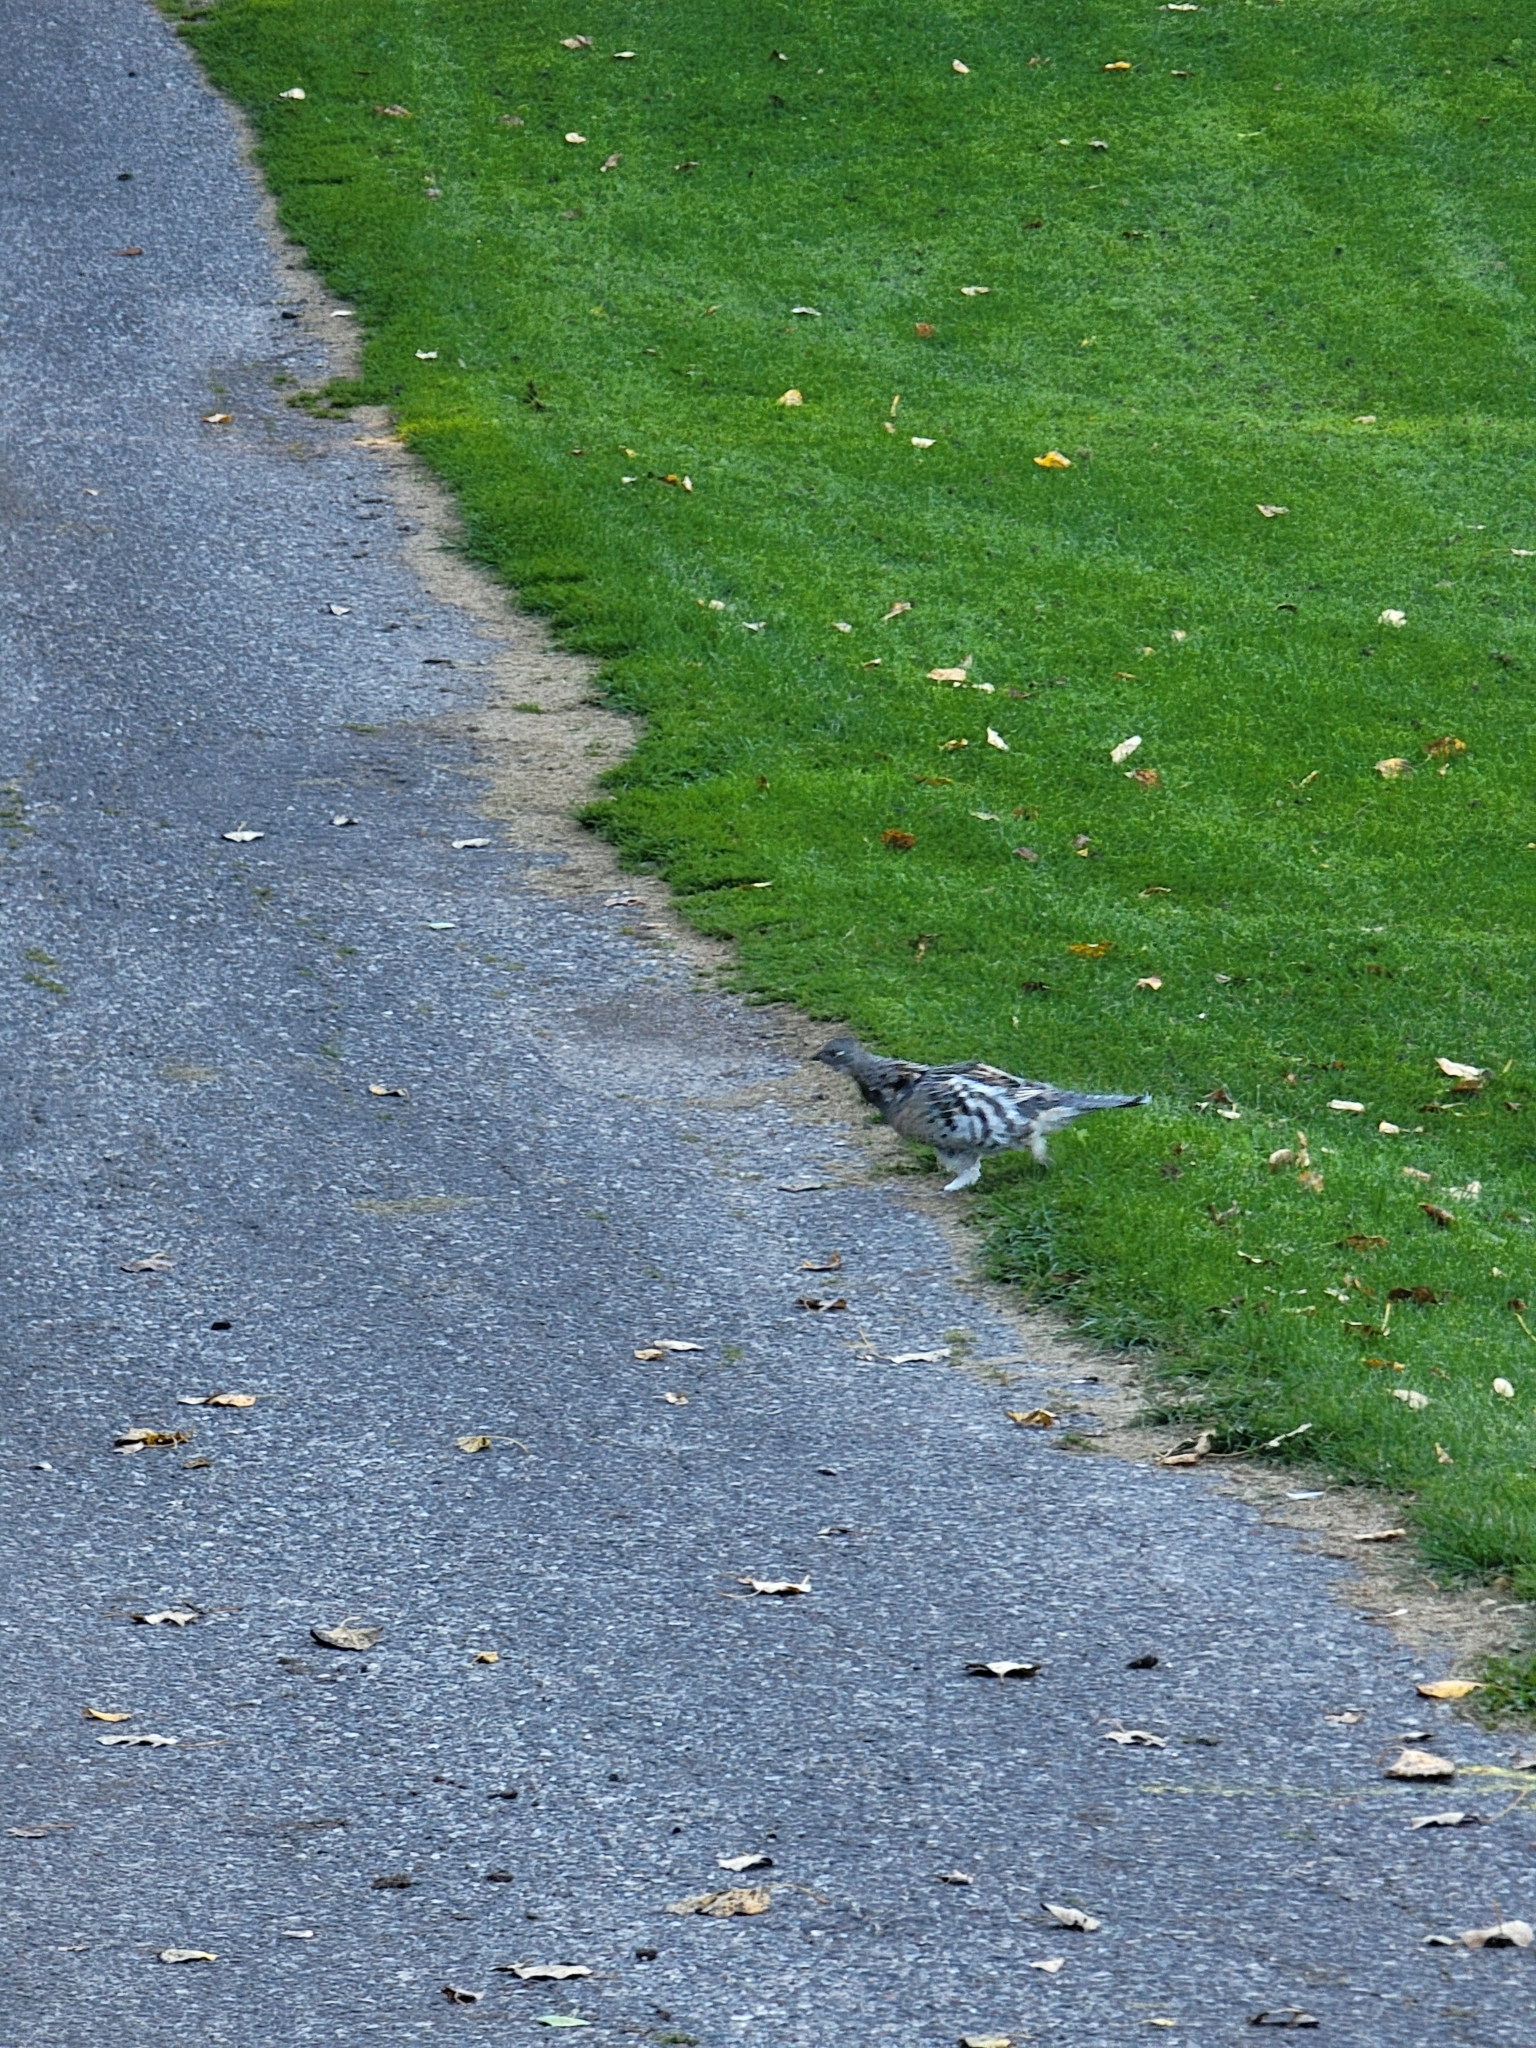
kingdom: Animalia
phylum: Chordata
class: Aves
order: Galliformes
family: Phasianidae
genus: Bonasa
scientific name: Bonasa umbellus
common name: Ruffed grouse
